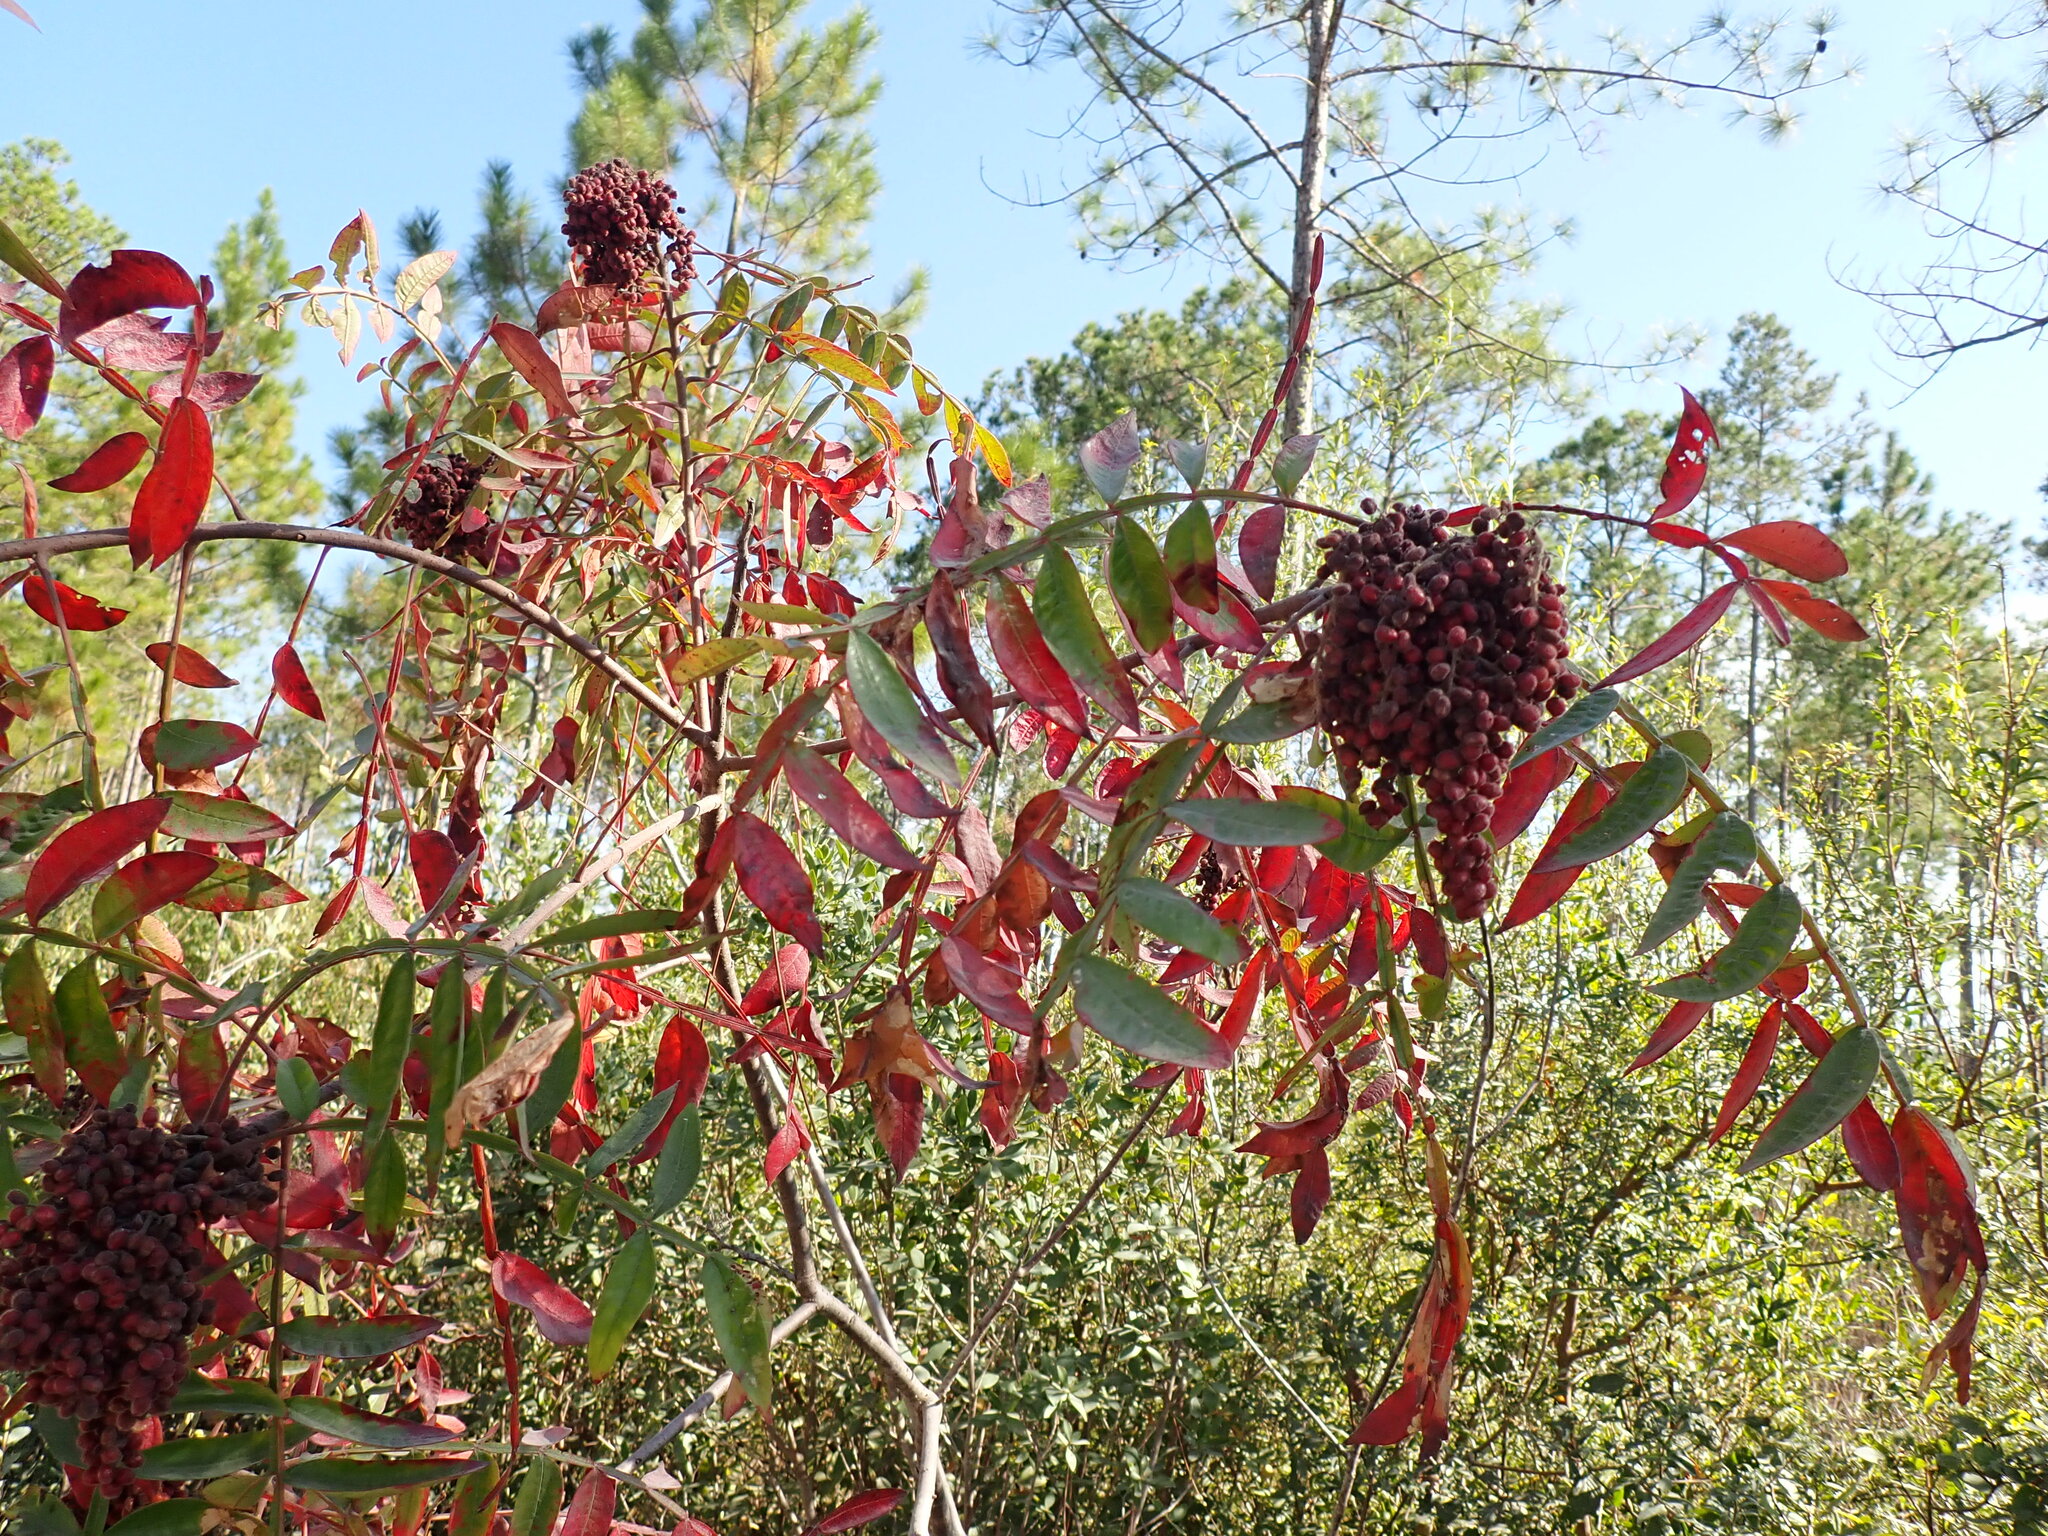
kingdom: Plantae
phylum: Tracheophyta
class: Magnoliopsida
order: Sapindales
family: Anacardiaceae
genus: Rhus
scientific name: Rhus copallina
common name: Shining sumac
